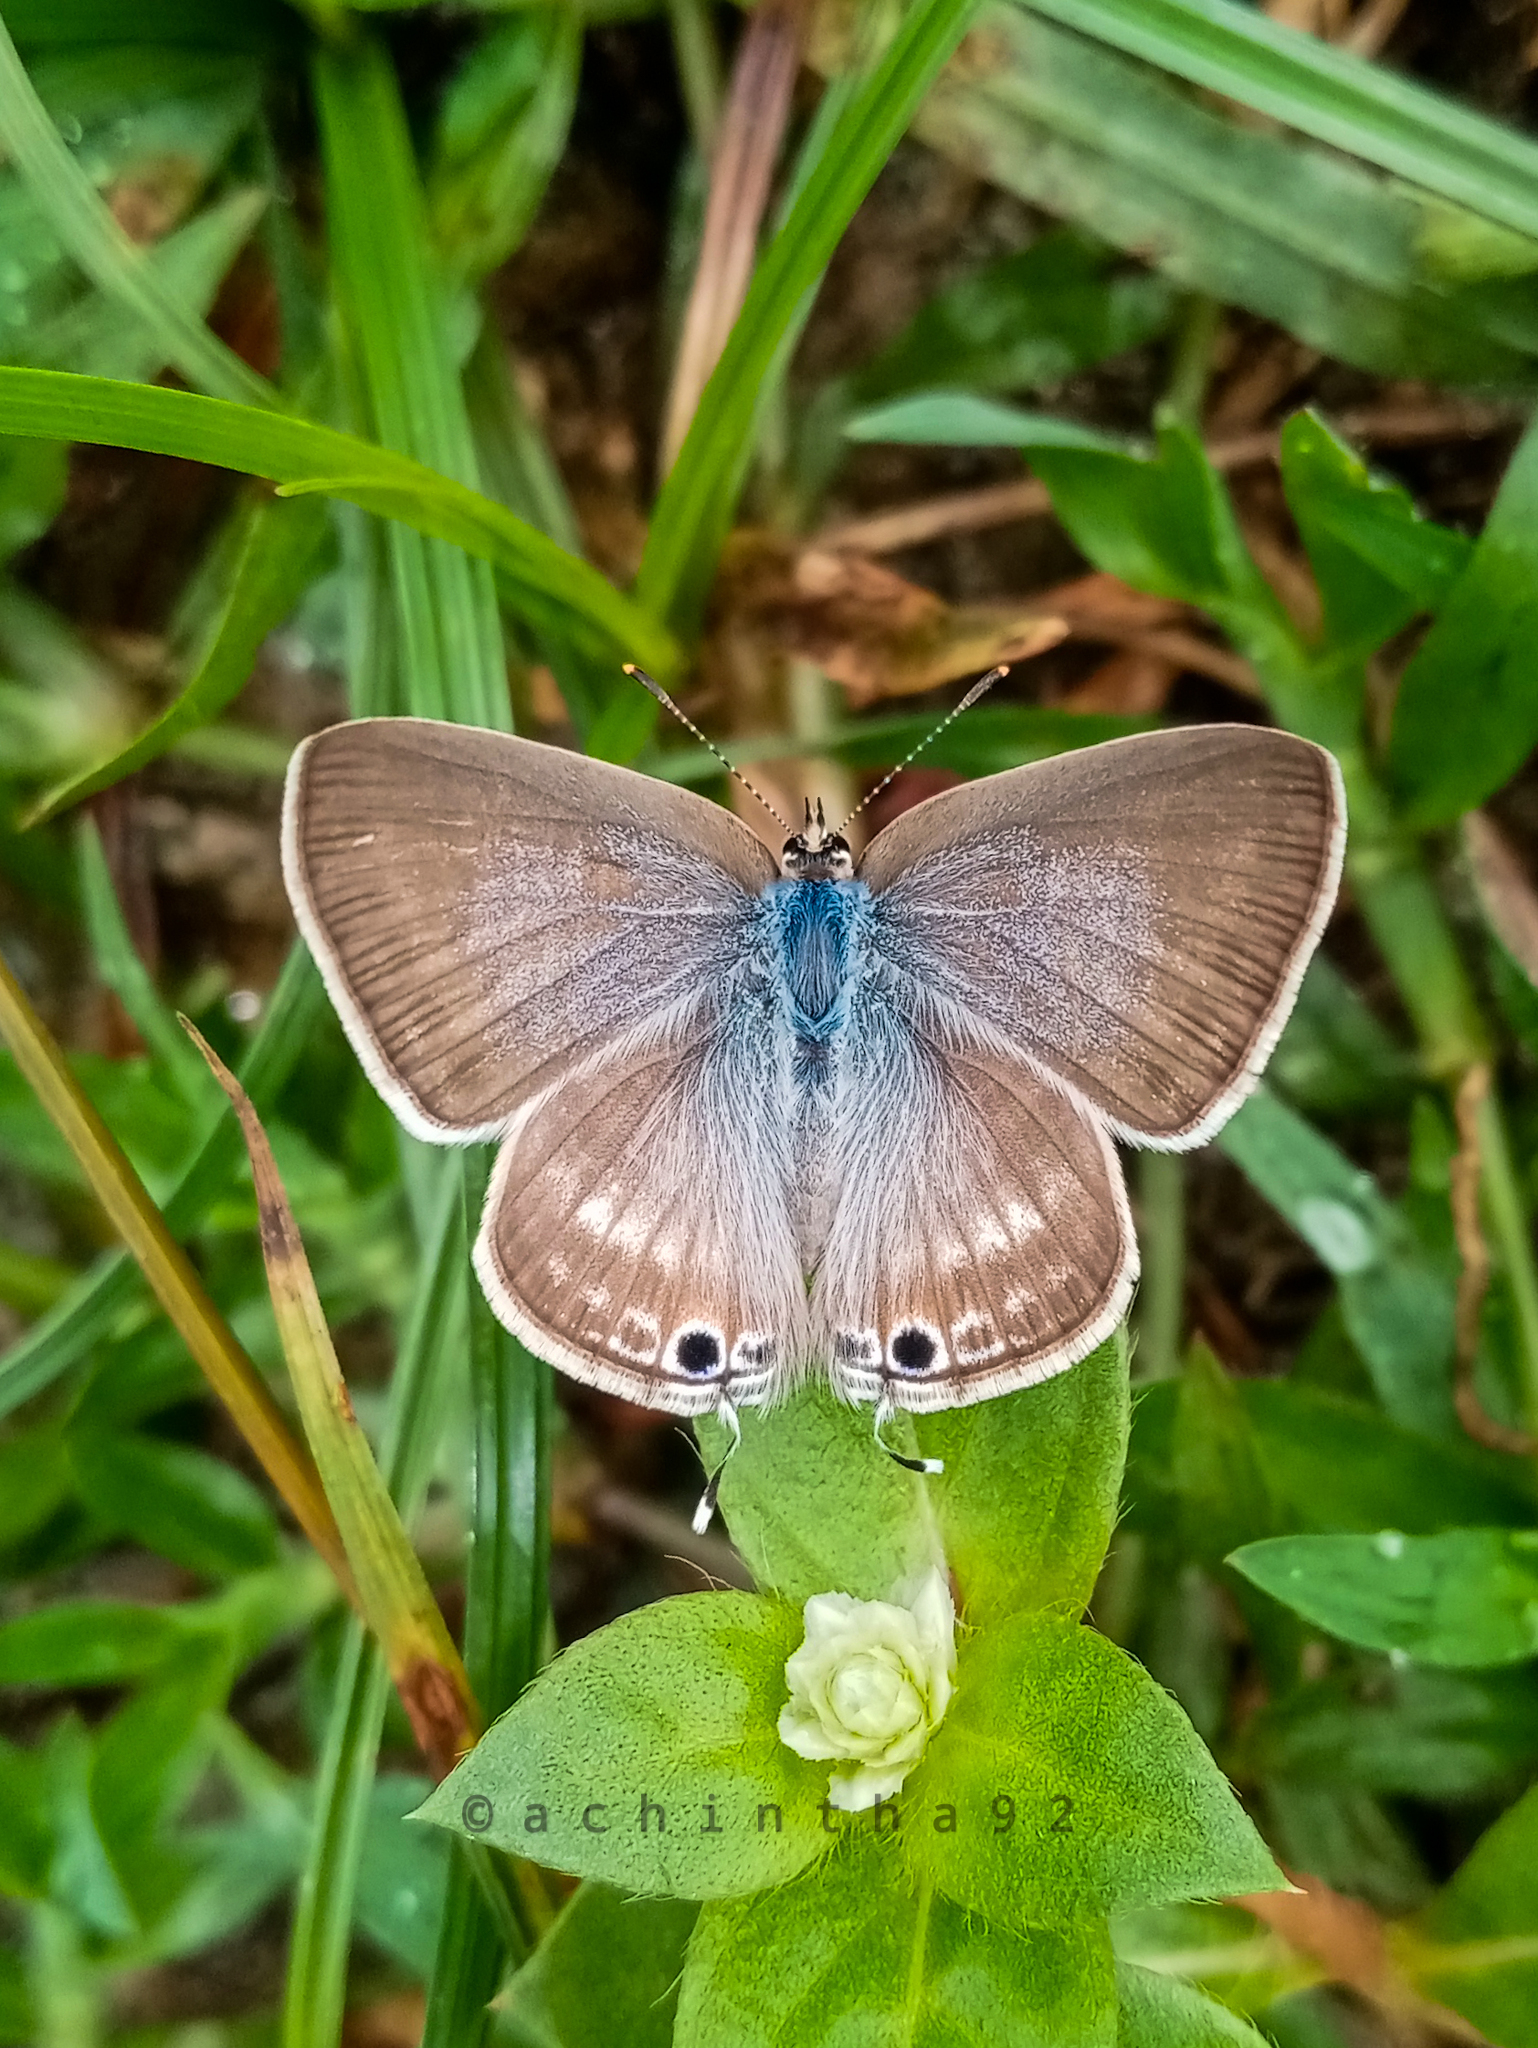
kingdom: Animalia
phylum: Arthropoda
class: Insecta
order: Lepidoptera
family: Lycaenidae
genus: Lampides
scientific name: Lampides boeticus
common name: Long-tailed blue
